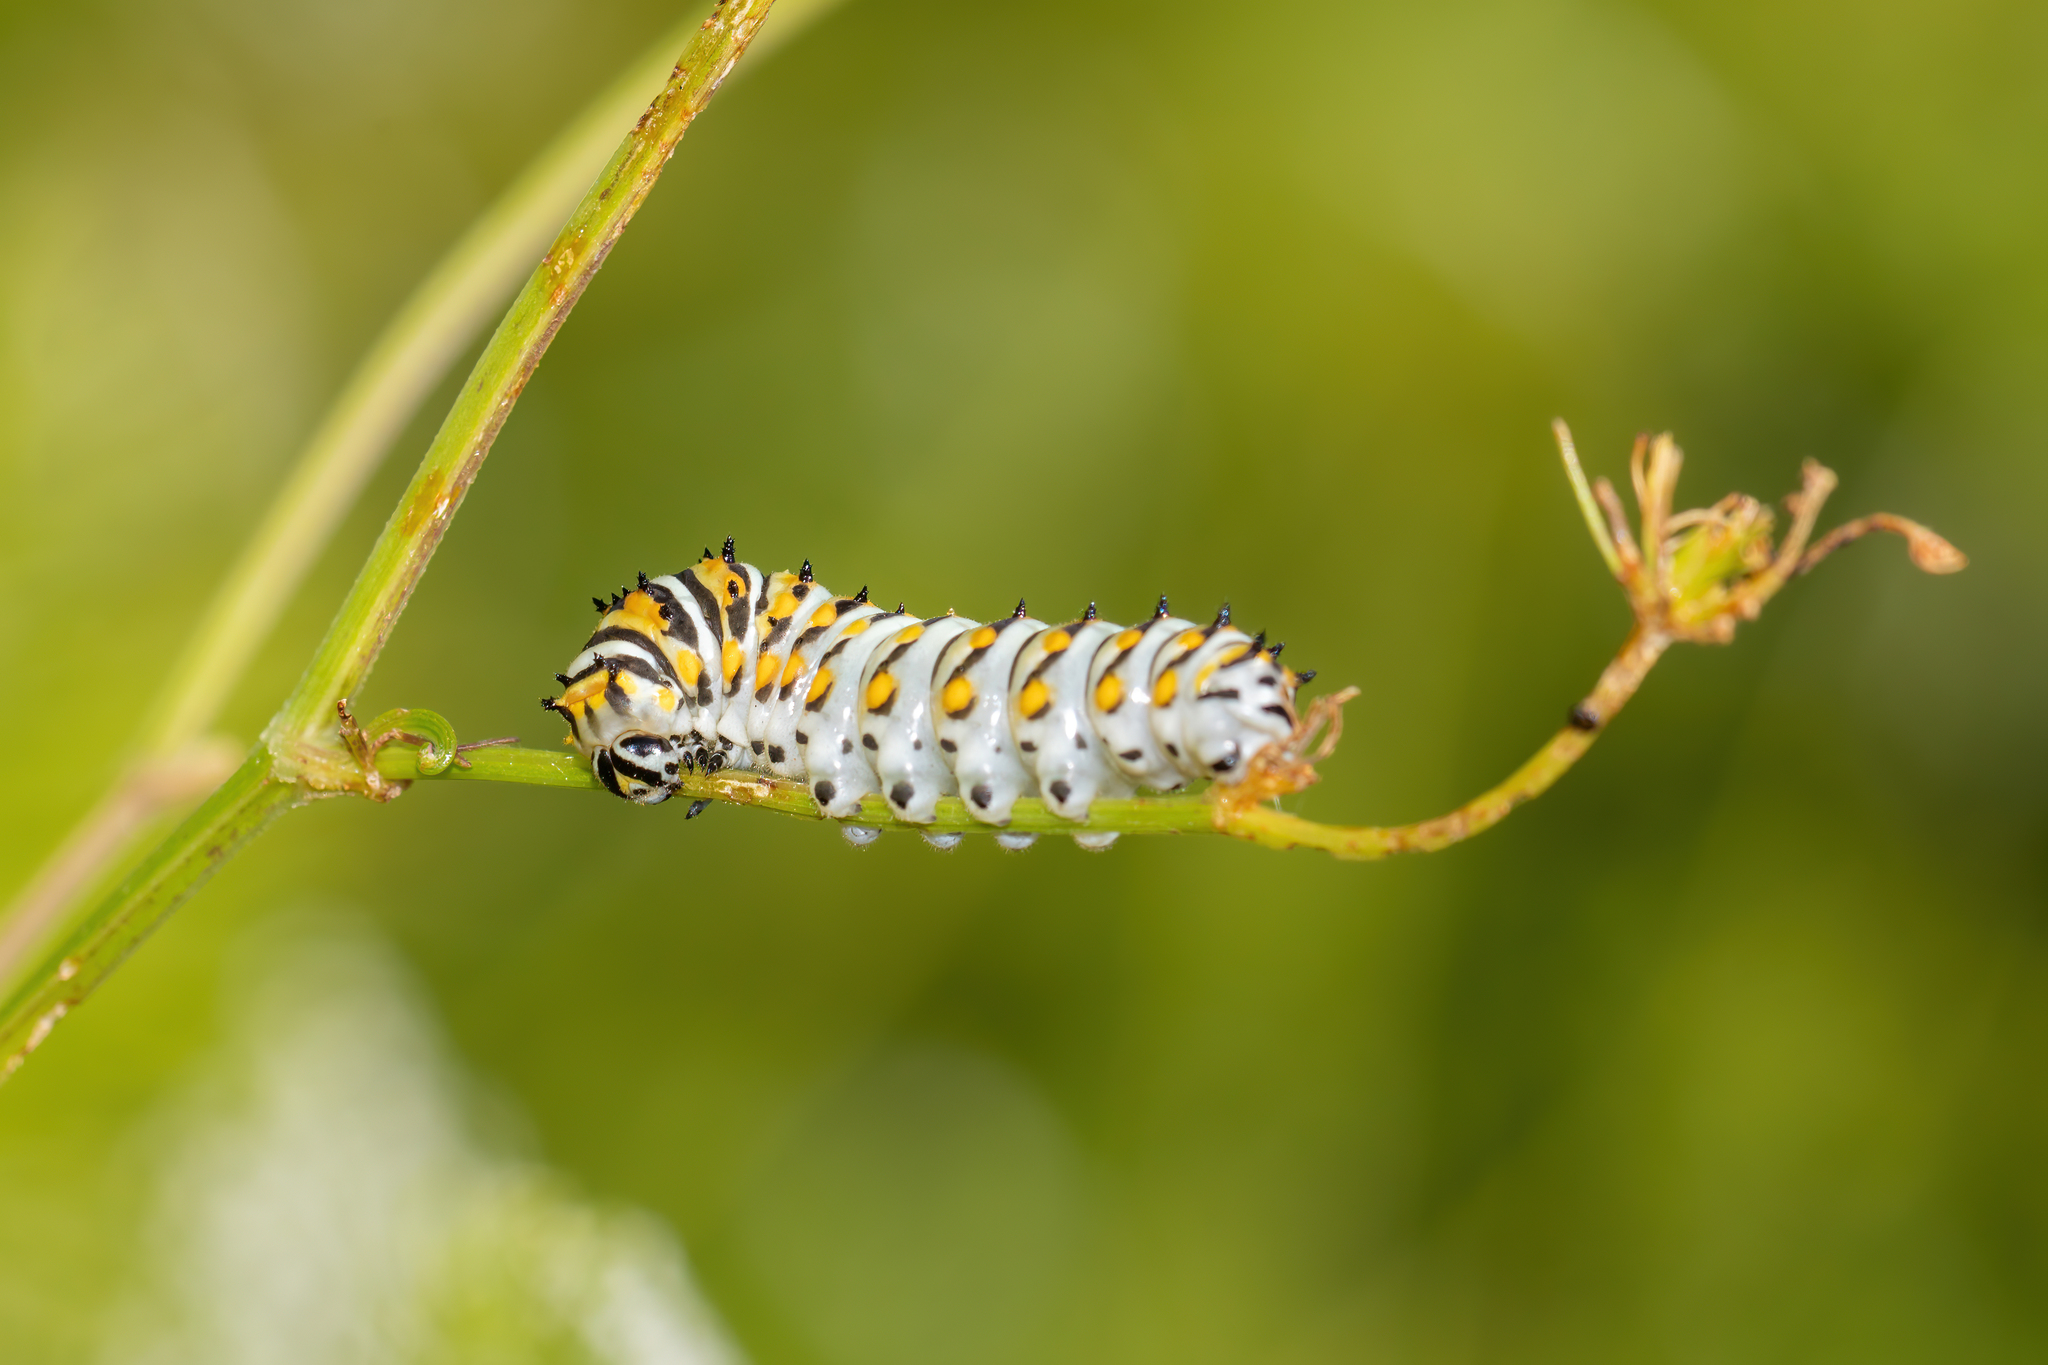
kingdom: Animalia
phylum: Arthropoda
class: Insecta
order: Lepidoptera
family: Papilionidae
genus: Papilio
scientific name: Papilio polyxenes
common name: Black swallowtail
